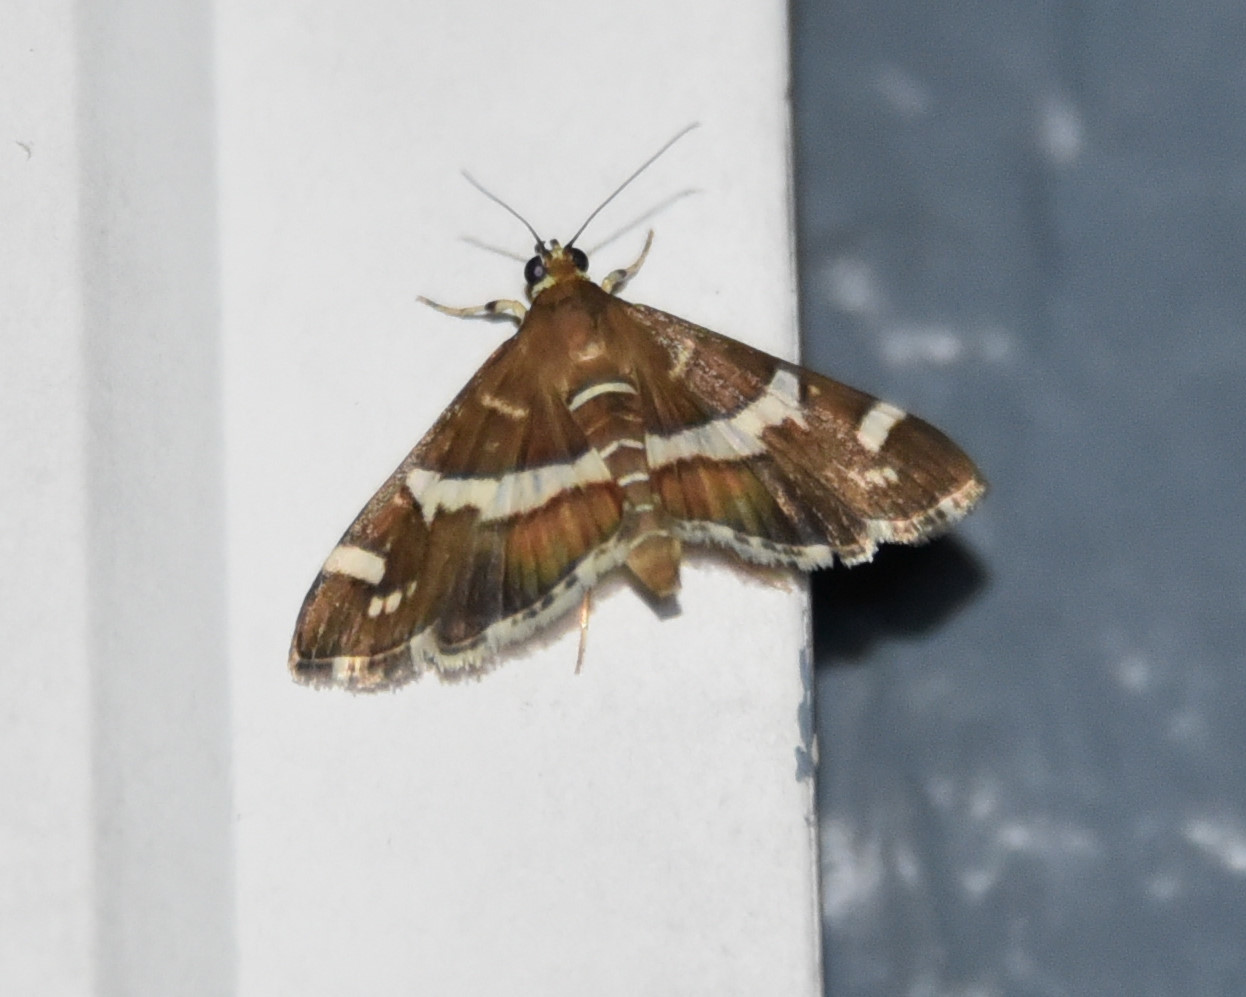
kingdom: Animalia
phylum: Arthropoda
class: Insecta
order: Lepidoptera
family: Crambidae
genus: Spoladea
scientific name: Spoladea recurvalis
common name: Beet webworm moth
